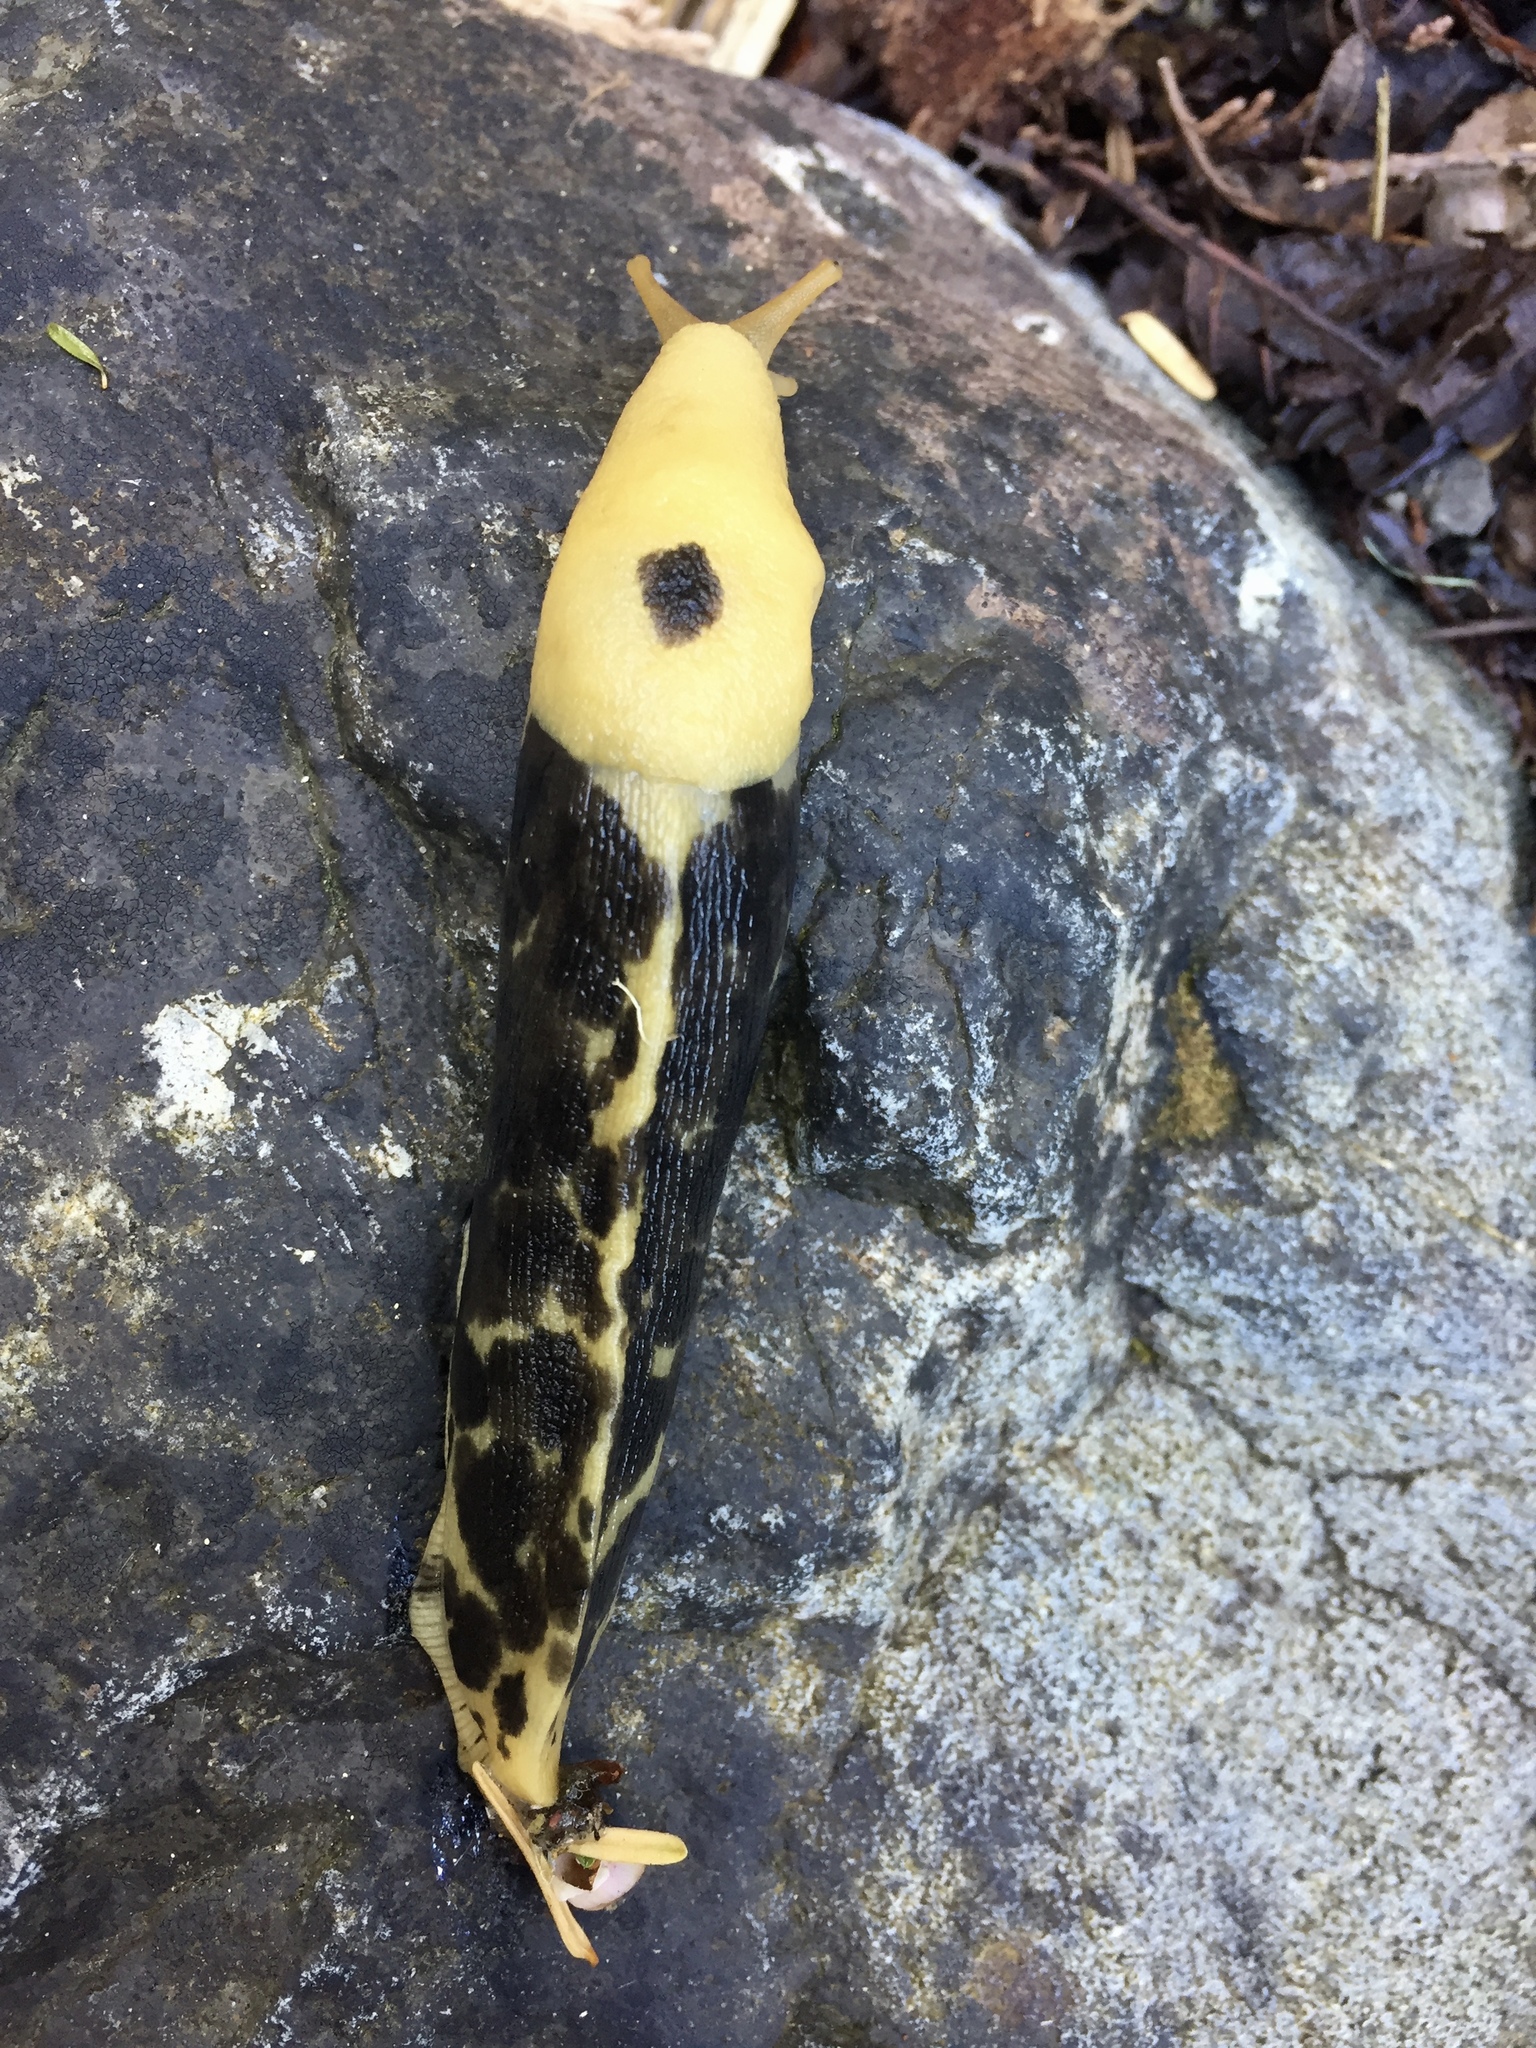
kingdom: Animalia
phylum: Mollusca
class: Gastropoda
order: Stylommatophora
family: Ariolimacidae
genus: Ariolimax
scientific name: Ariolimax columbianus
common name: Pacific banana slug
